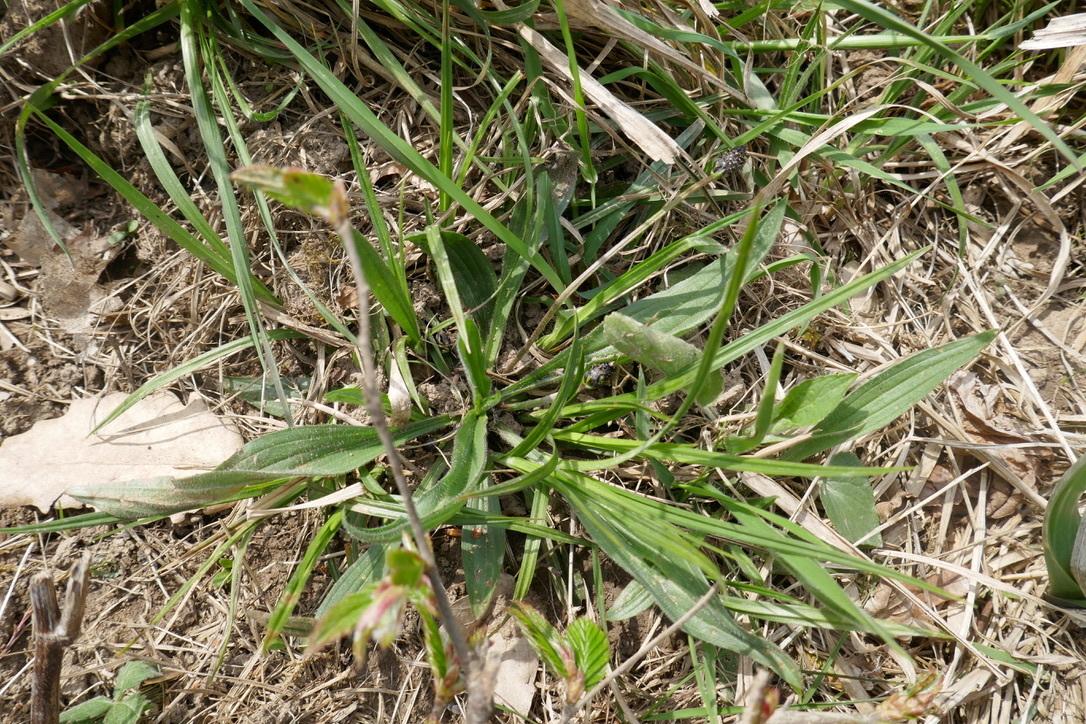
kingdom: Plantae
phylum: Tracheophyta
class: Magnoliopsida
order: Lamiales
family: Plantaginaceae
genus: Plantago
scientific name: Plantago lanceolata
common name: Ribwort plantain
